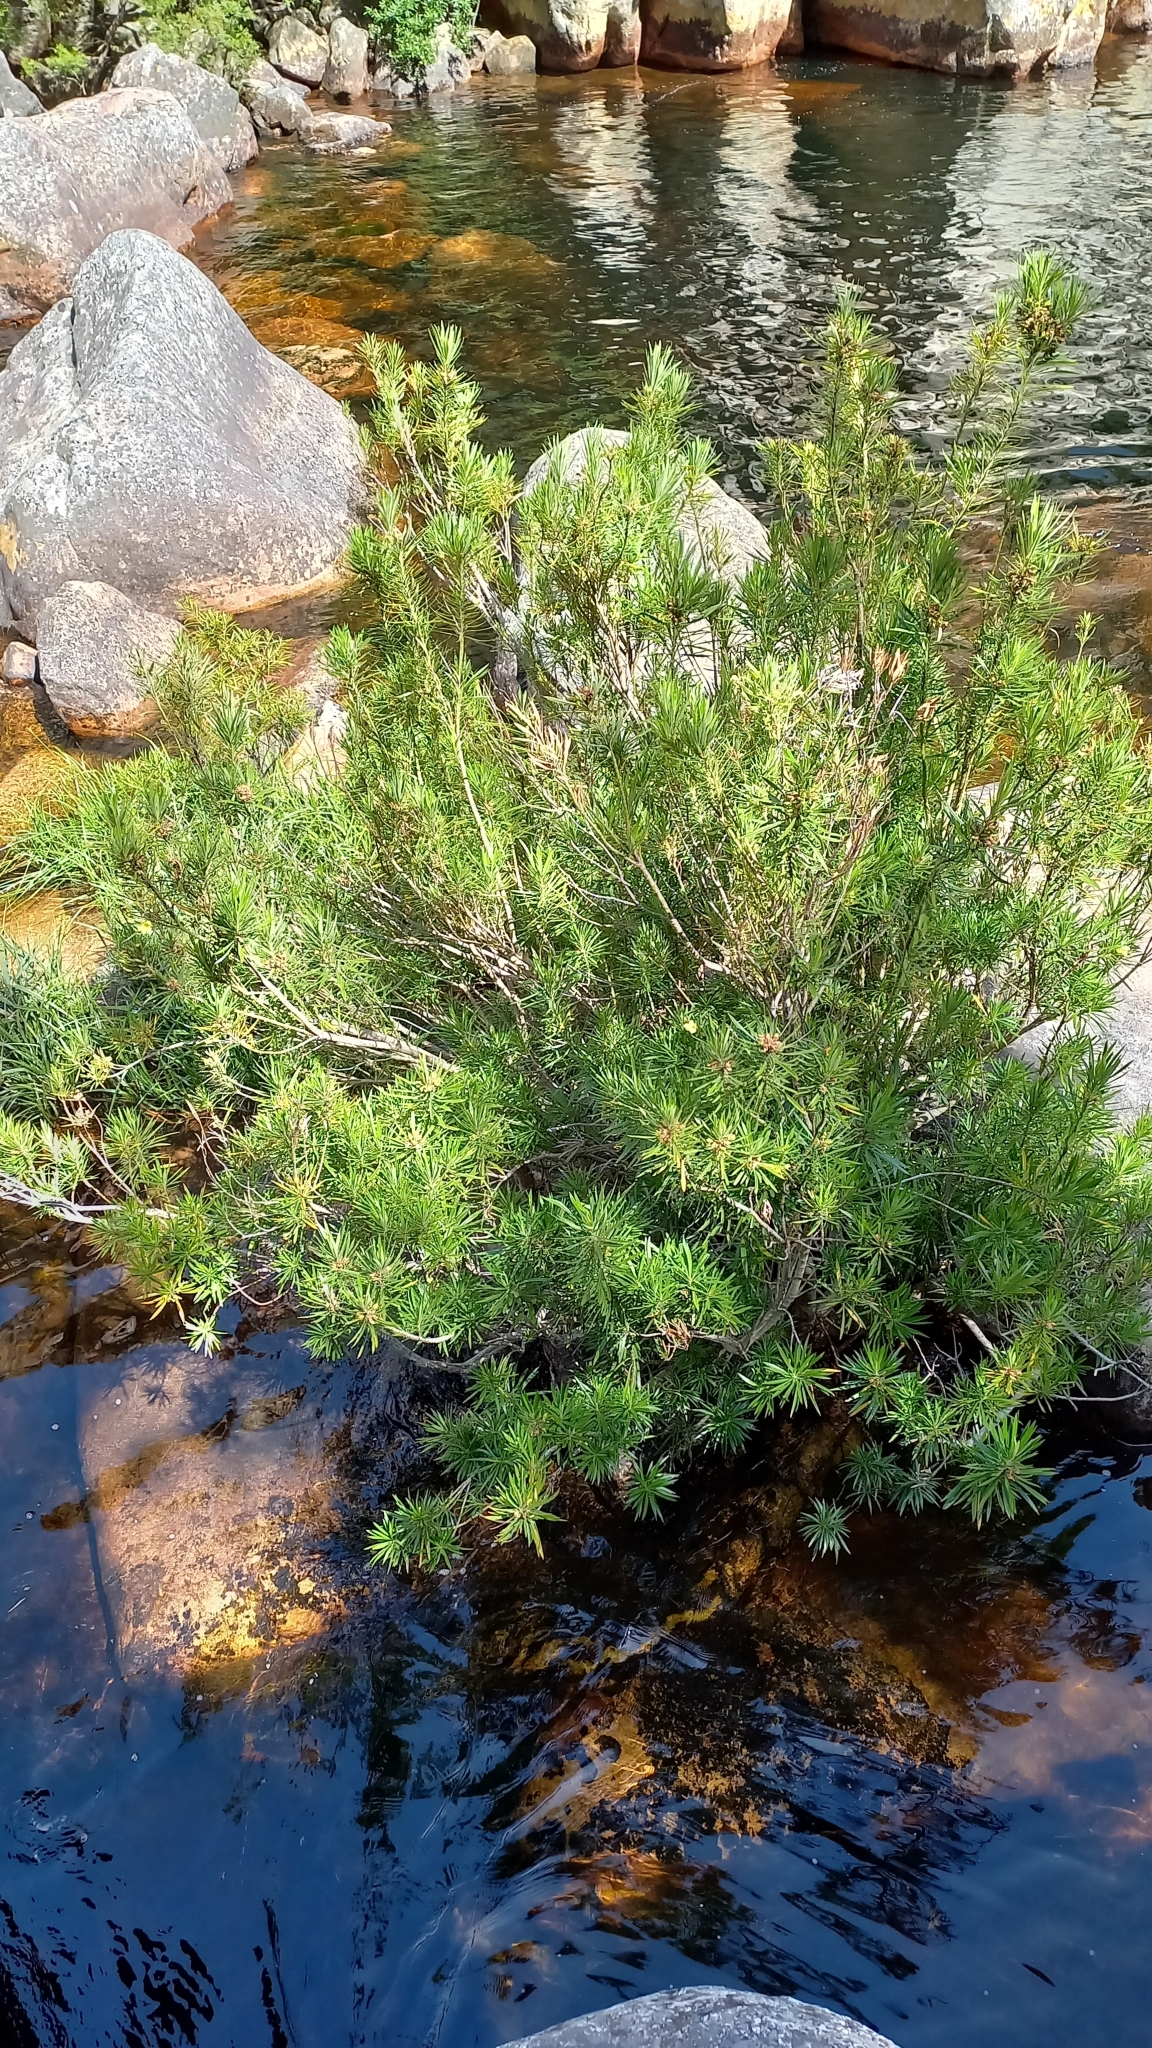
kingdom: Plantae
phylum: Tracheophyta
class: Magnoliopsida
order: Myrtales
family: Myrtaceae
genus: Callistemon
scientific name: Callistemon lanceolatus
